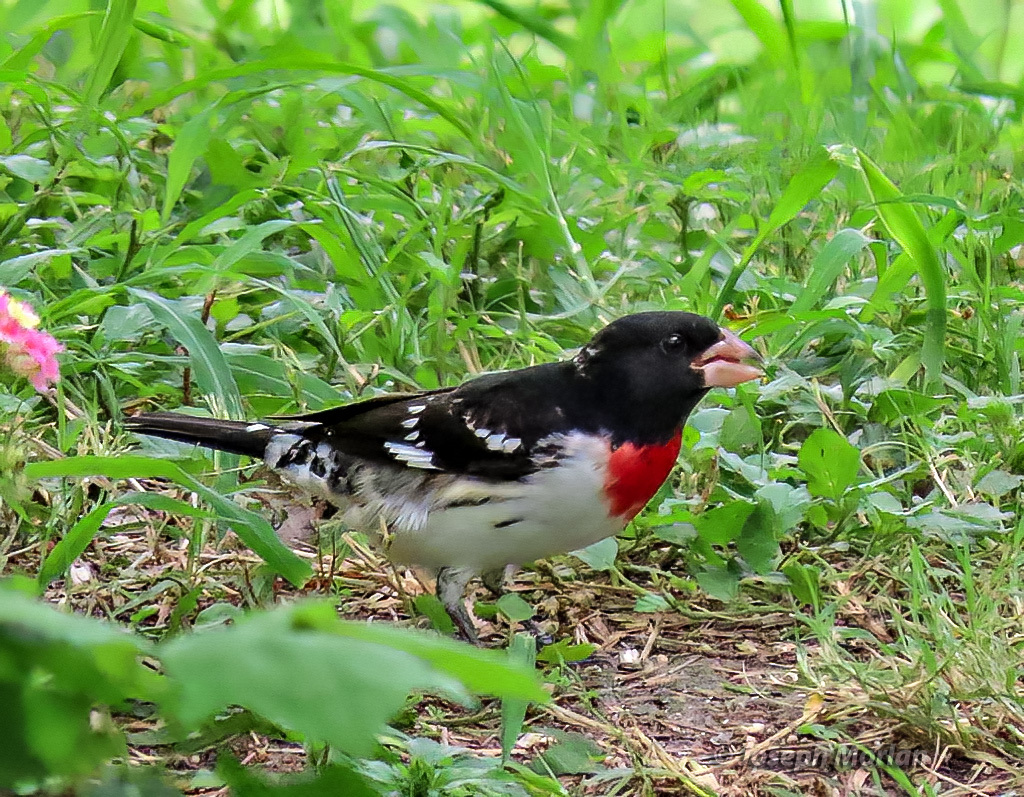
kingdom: Animalia
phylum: Chordata
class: Aves
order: Passeriformes
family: Cardinalidae
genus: Pheucticus
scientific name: Pheucticus ludovicianus
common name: Rose-breasted grosbeak
